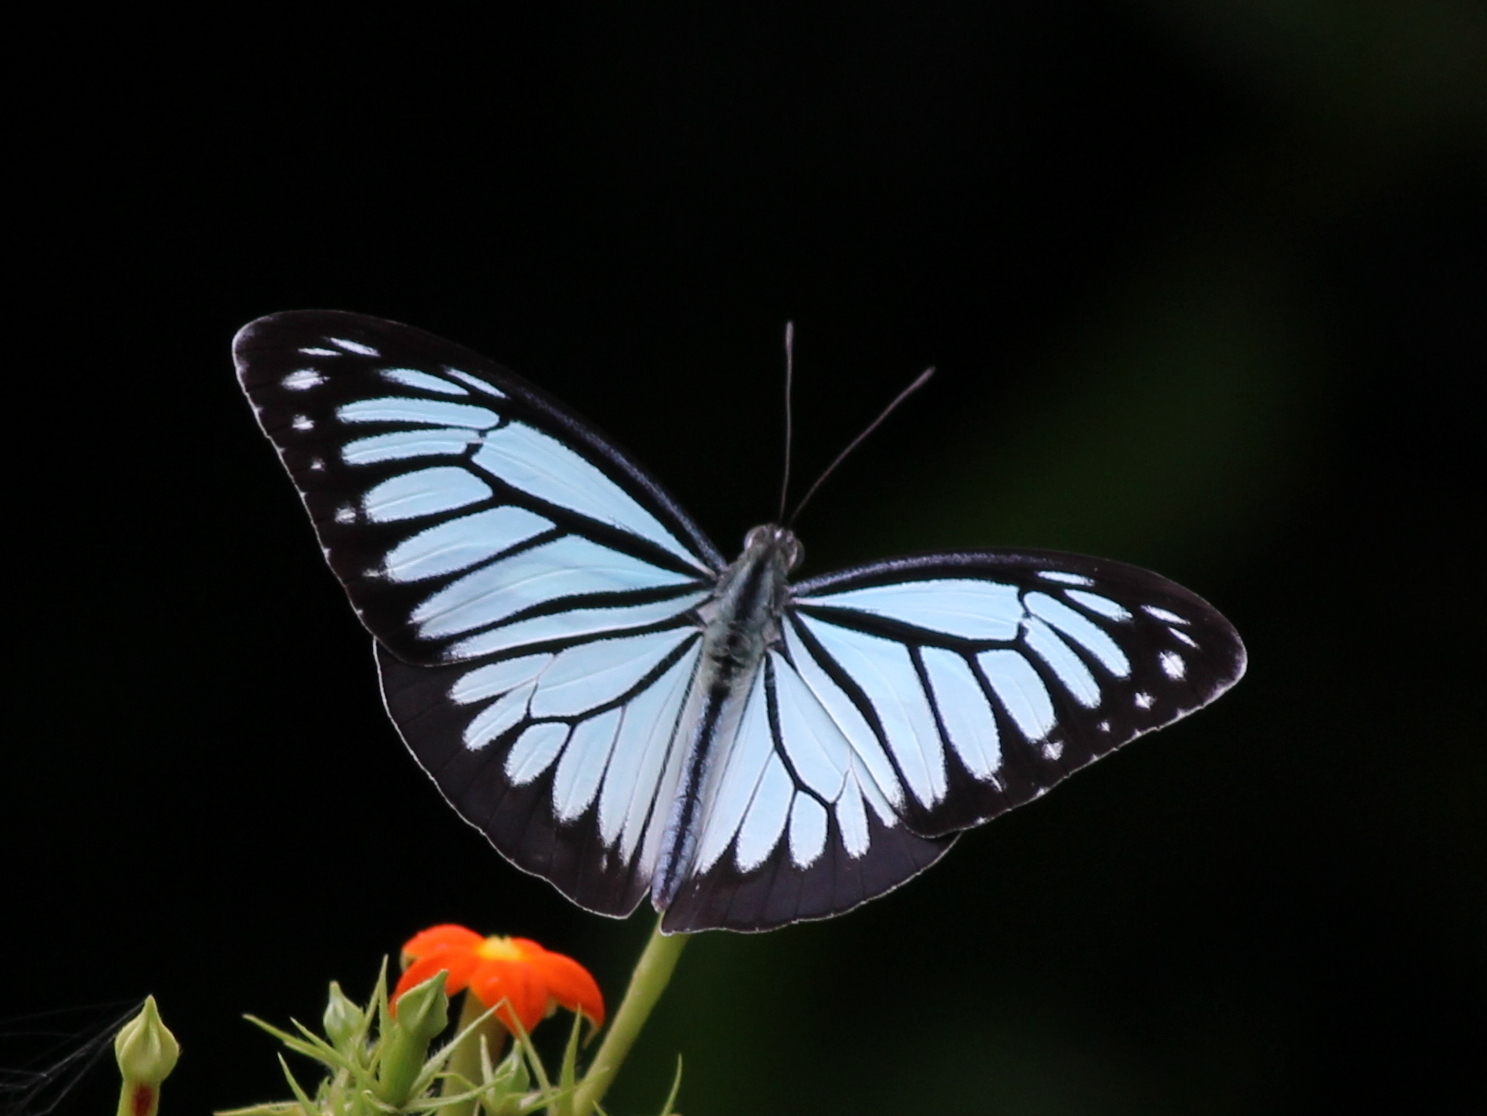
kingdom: Animalia
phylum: Arthropoda
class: Insecta
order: Lepidoptera
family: Pieridae
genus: Pareronia
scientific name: Pareronia hippia
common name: Indian wanderer
